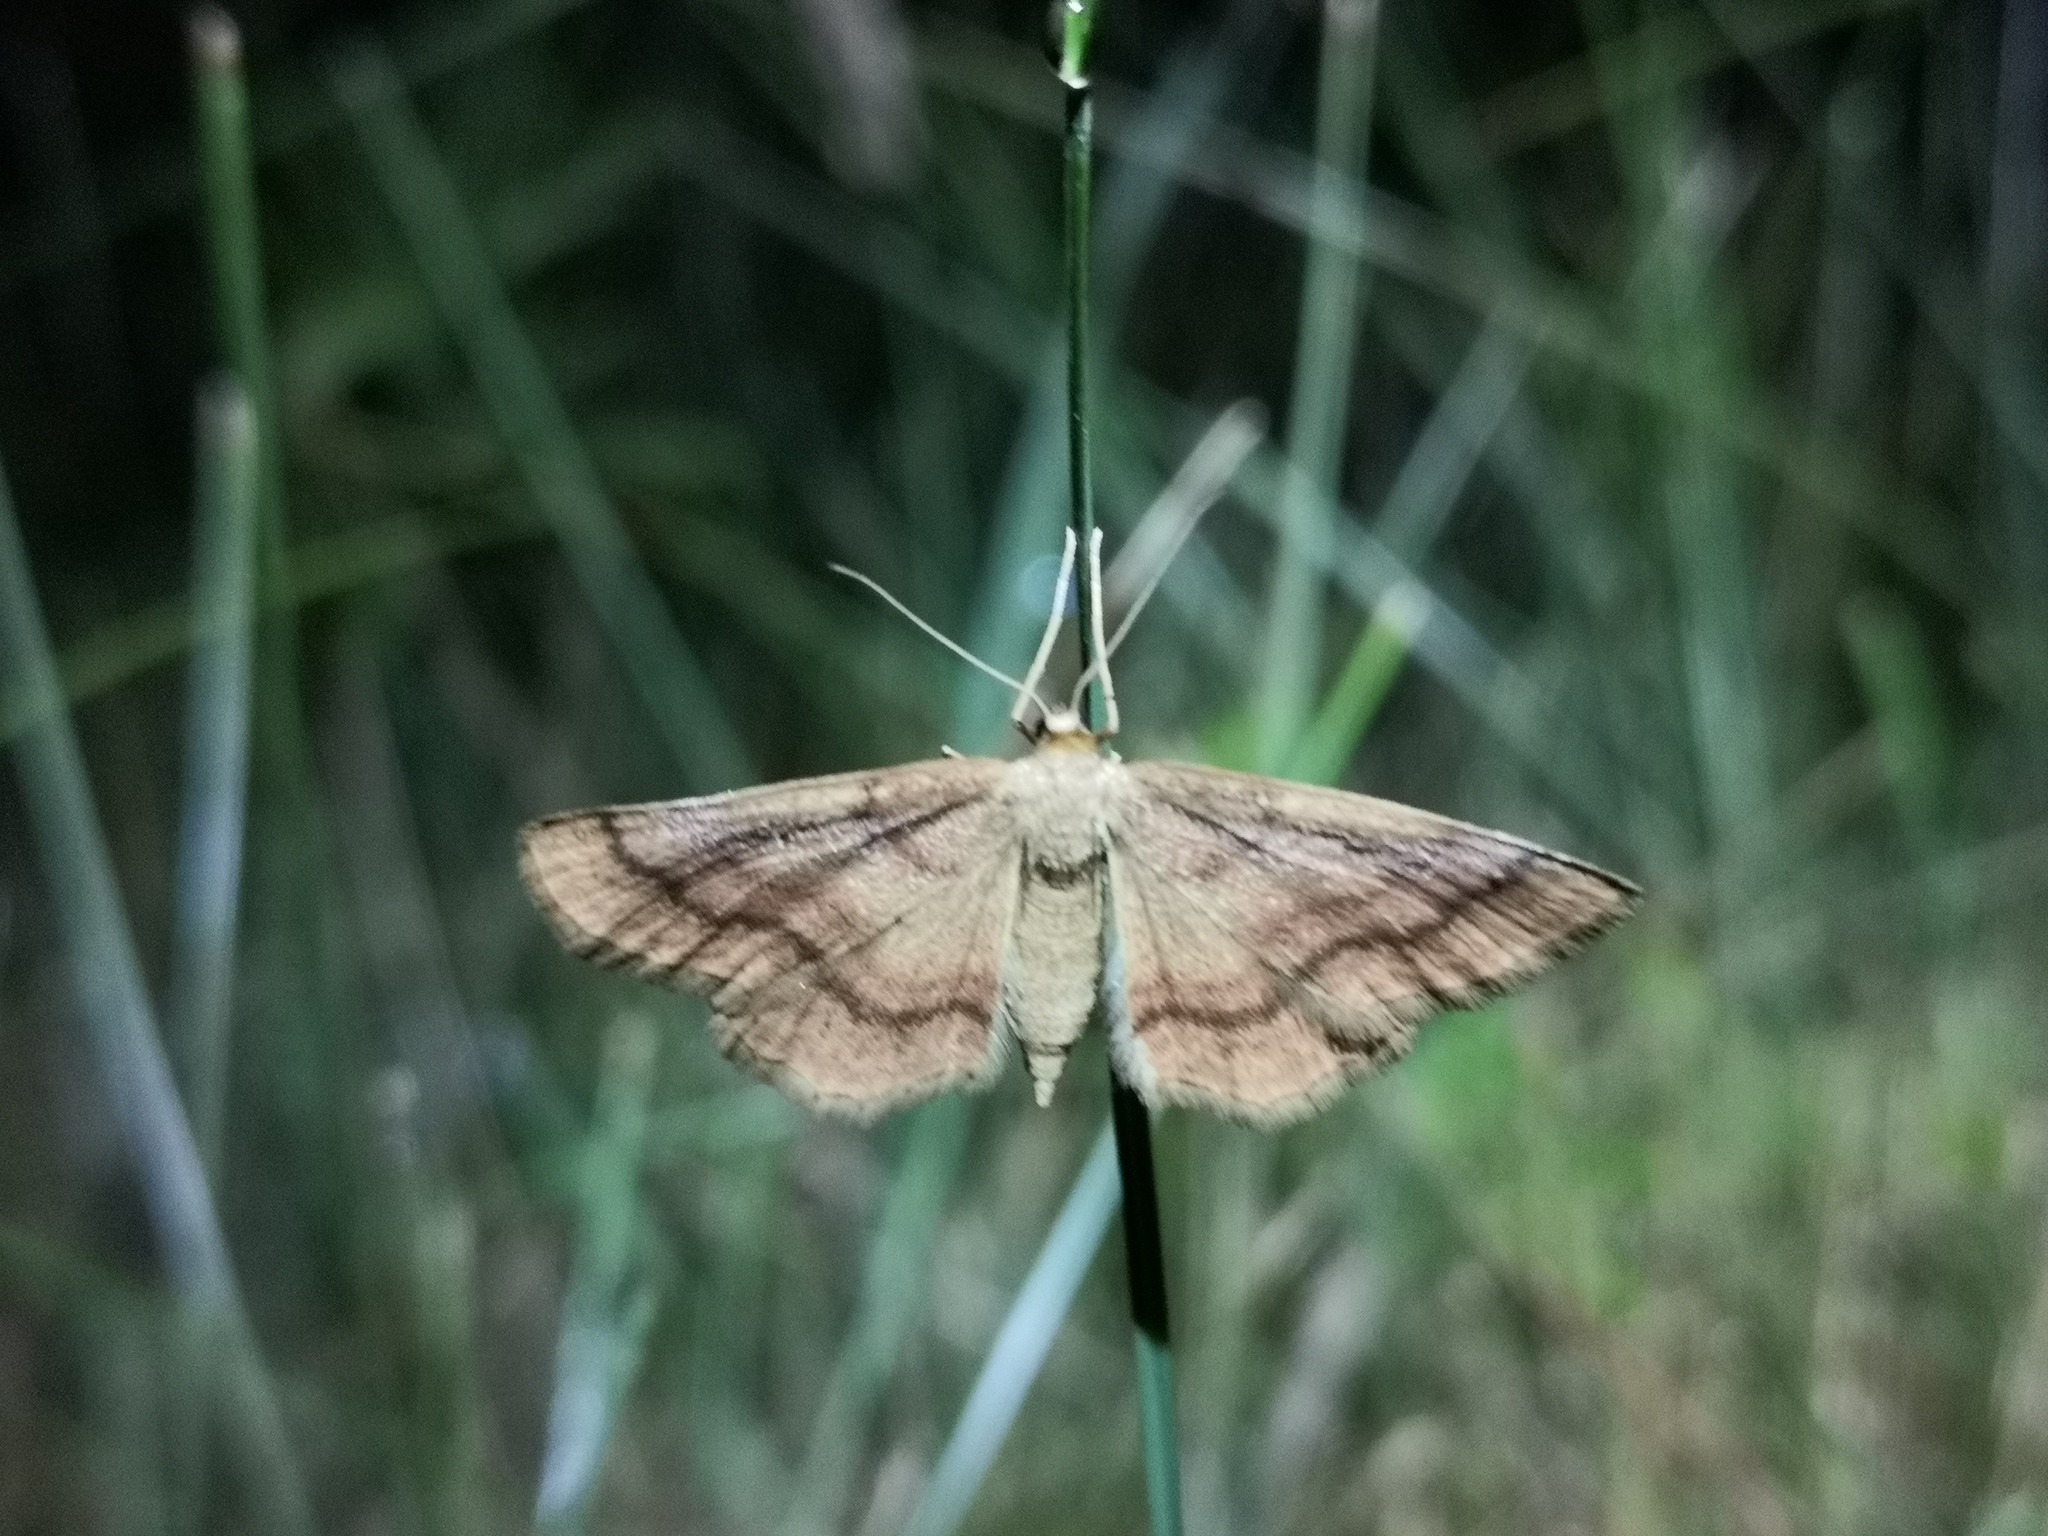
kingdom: Animalia
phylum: Arthropoda
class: Insecta
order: Lepidoptera
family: Geometridae
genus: Idaea
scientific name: Idaea rufaria
